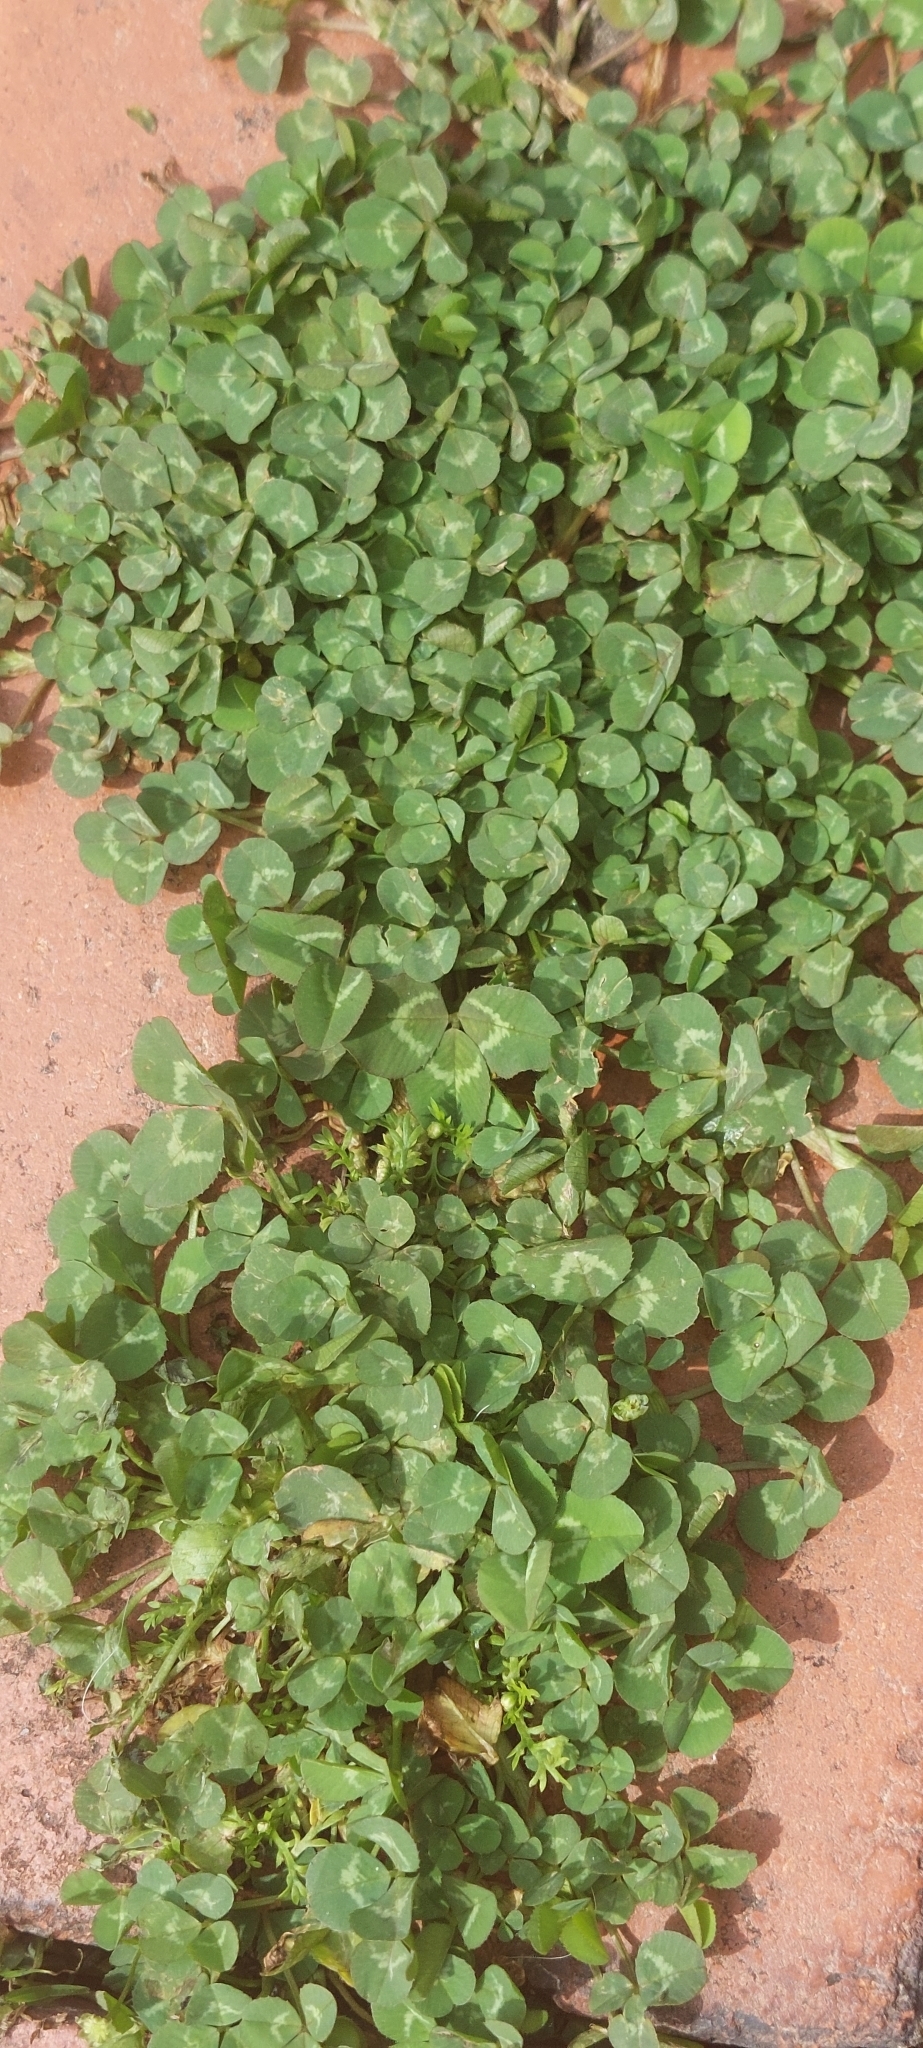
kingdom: Plantae
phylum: Tracheophyta
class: Magnoliopsida
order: Fabales
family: Fabaceae
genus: Trifolium
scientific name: Trifolium repens
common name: White clover
